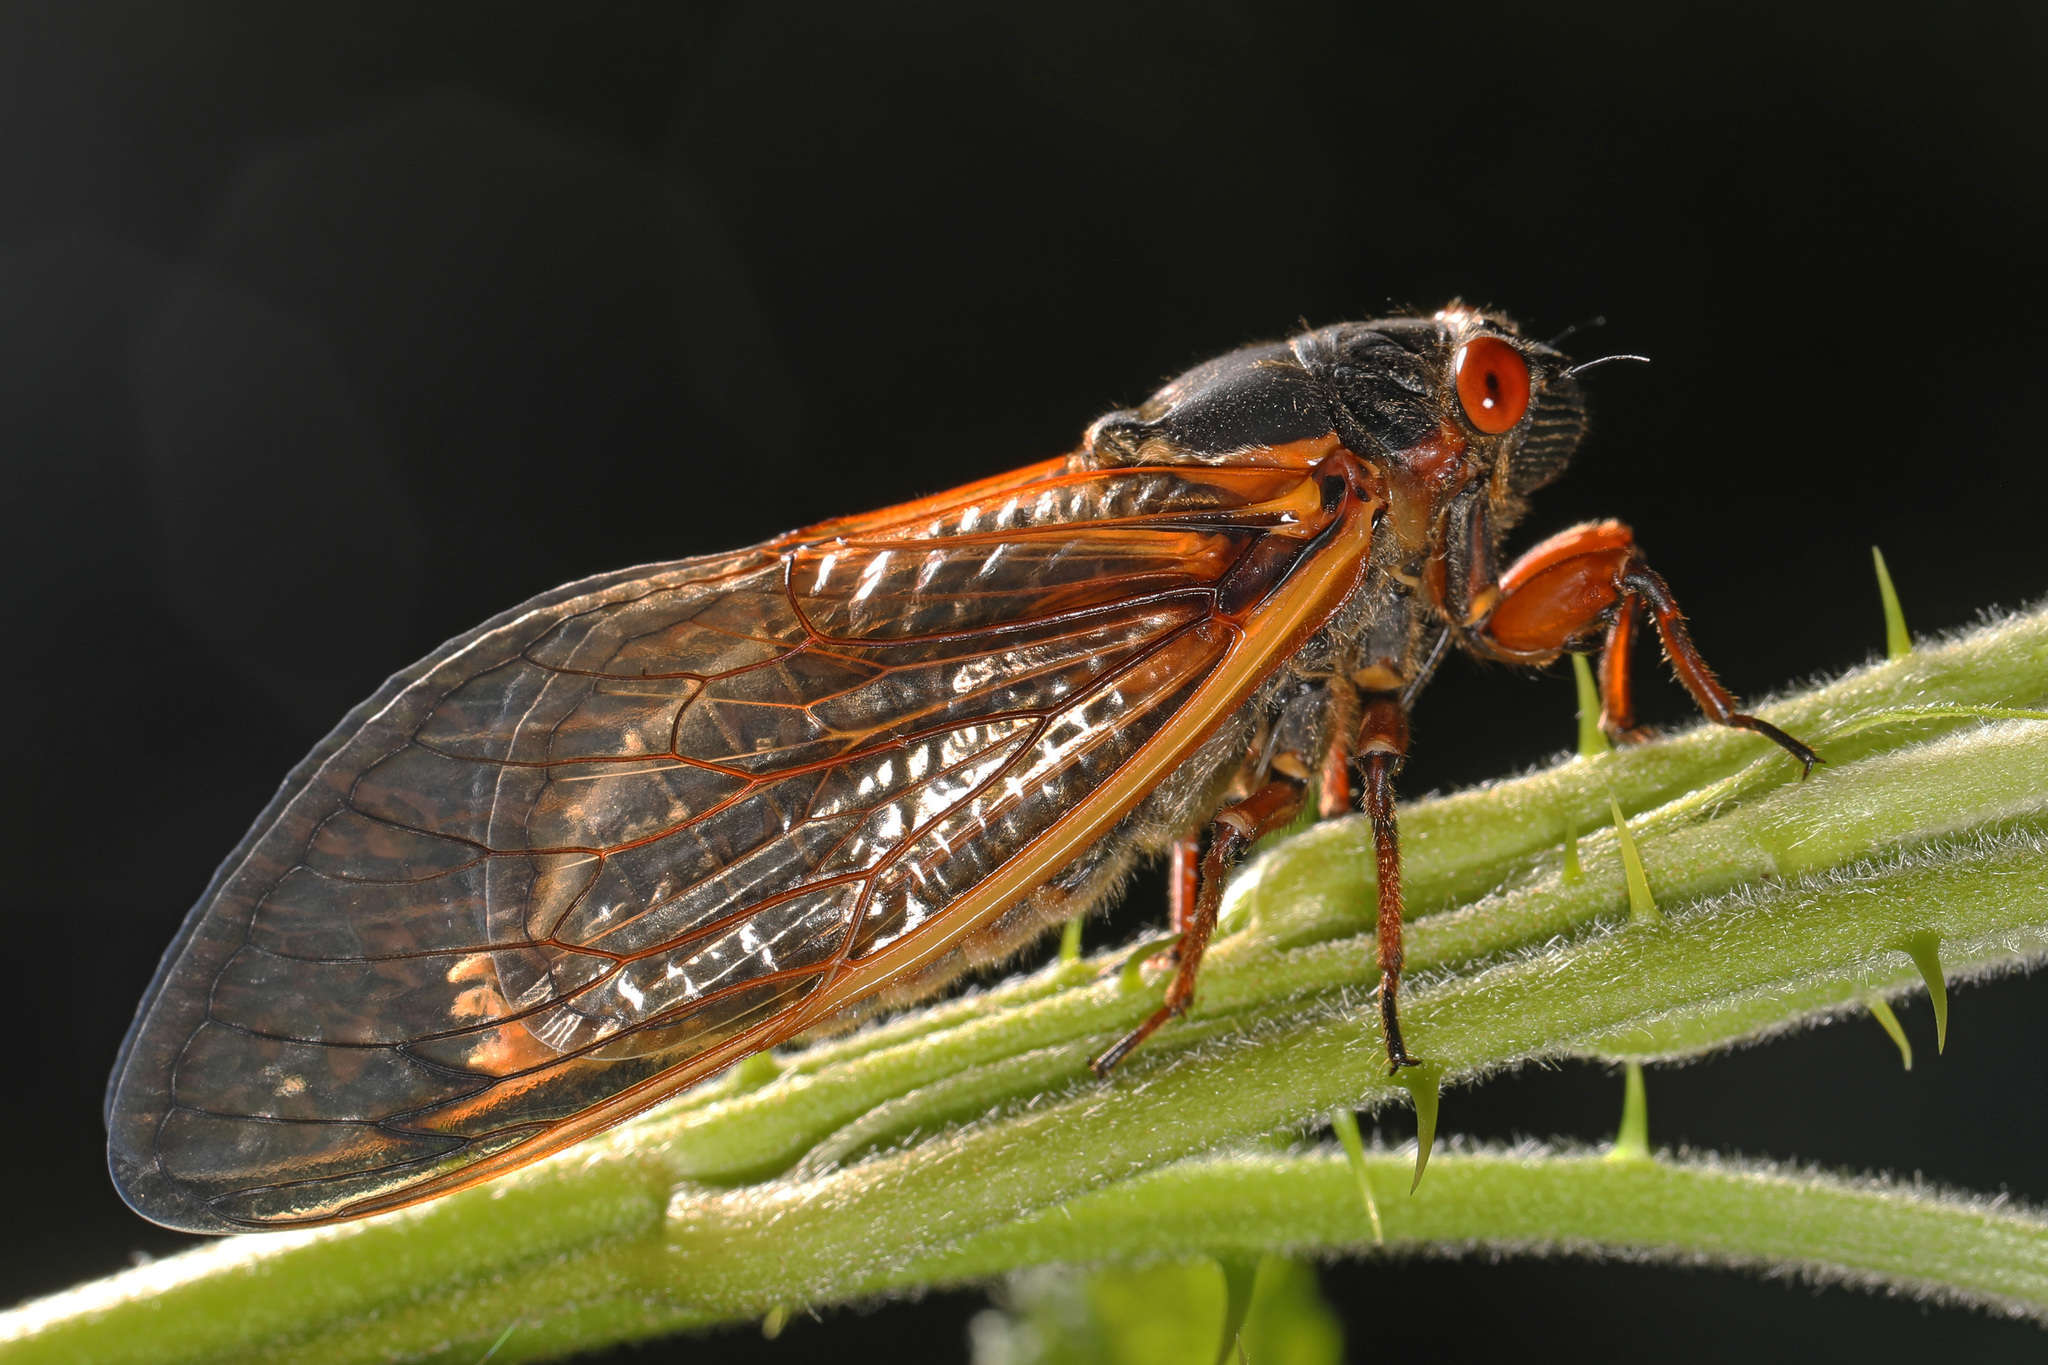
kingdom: Animalia
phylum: Arthropoda
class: Insecta
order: Hemiptera
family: Cicadidae
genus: Magicicada
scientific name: Magicicada septendecim
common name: Periodical cicada
